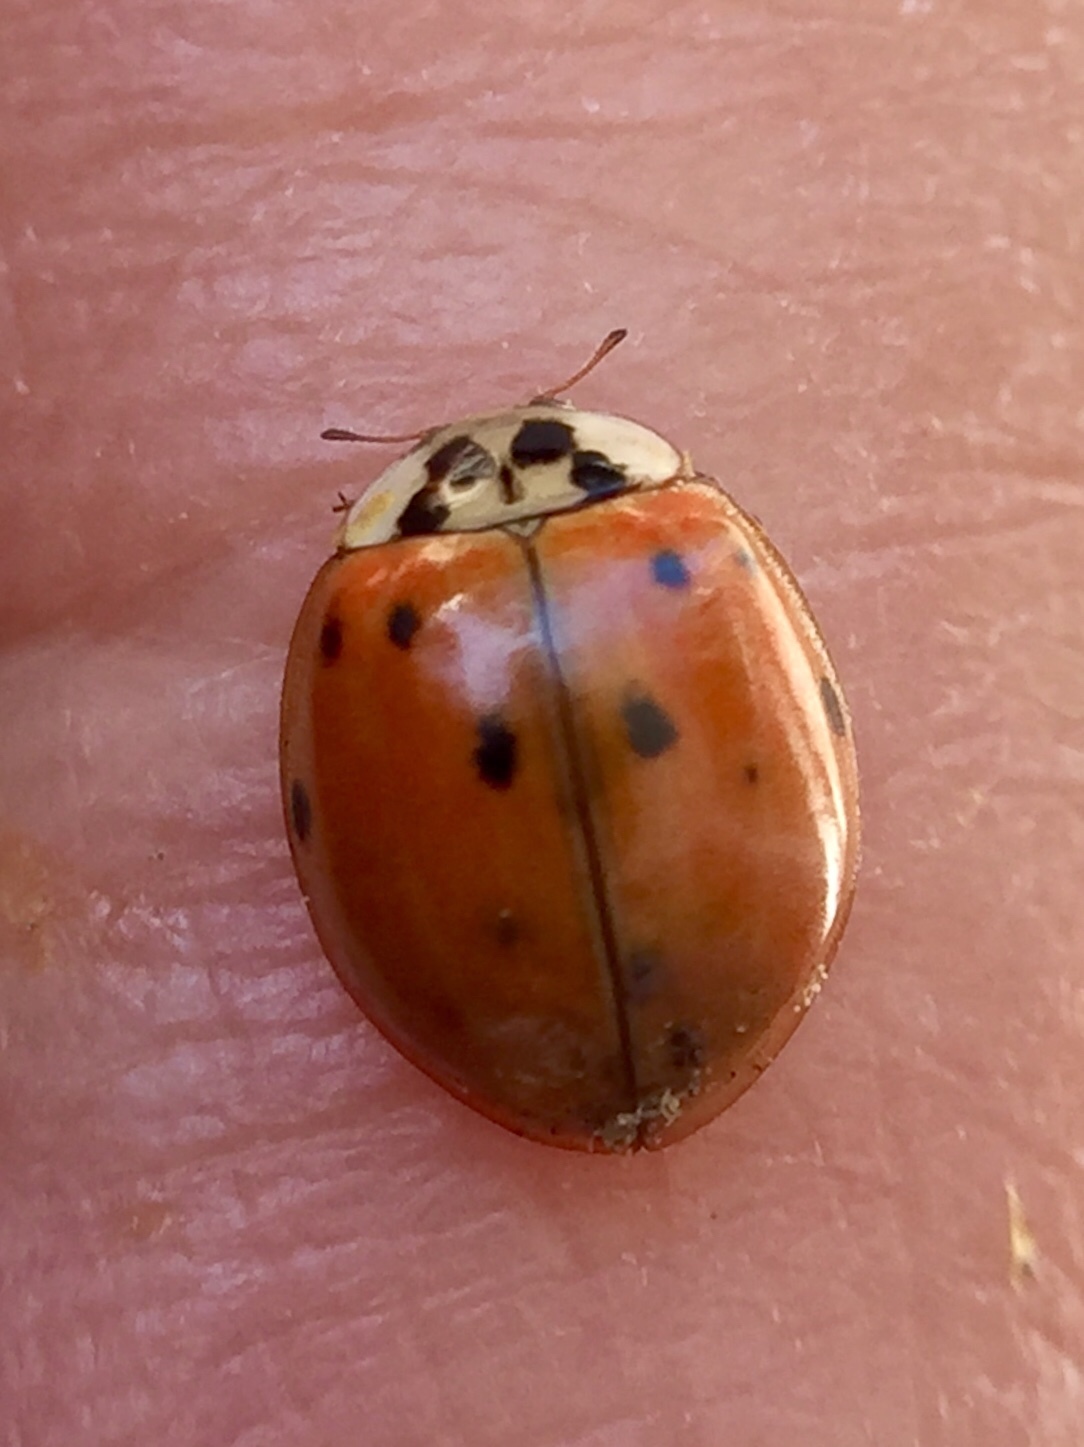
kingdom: Animalia
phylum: Arthropoda
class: Insecta
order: Coleoptera
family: Coccinellidae
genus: Harmonia
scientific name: Harmonia axyridis
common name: Harlequin ladybird
